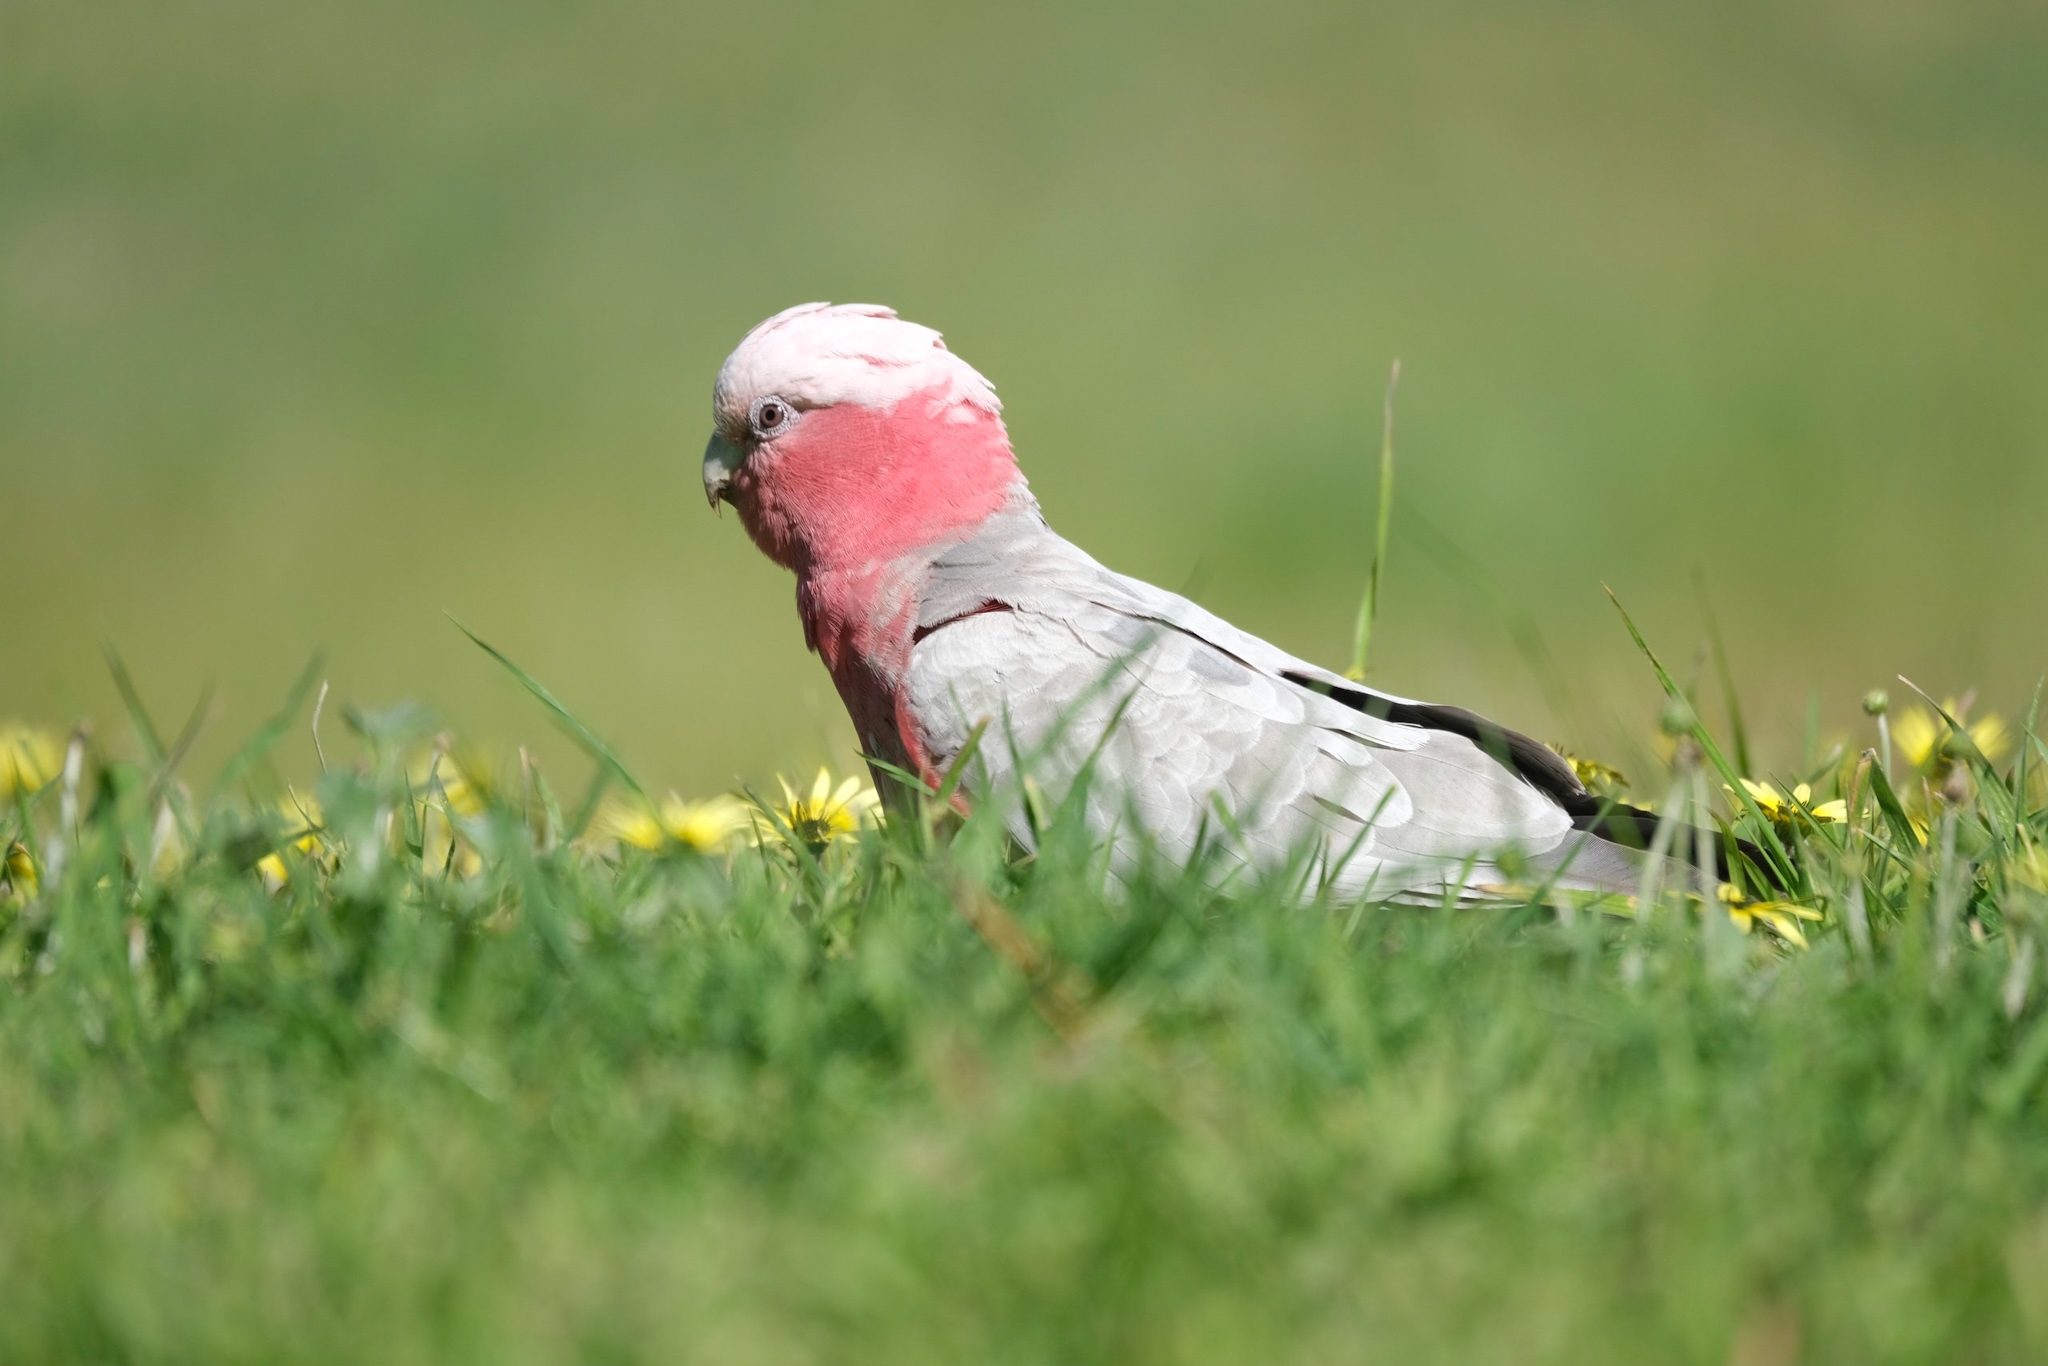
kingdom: Animalia
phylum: Chordata
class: Aves
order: Psittaciformes
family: Psittacidae
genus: Eolophus
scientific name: Eolophus roseicapilla
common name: Galah
